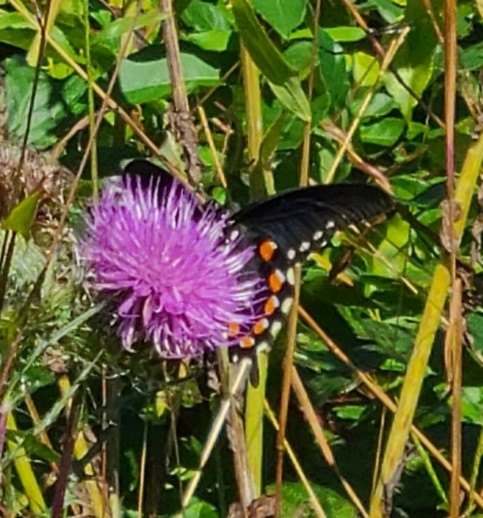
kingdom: Animalia
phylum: Arthropoda
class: Insecta
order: Lepidoptera
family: Papilionidae
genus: Battus
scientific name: Battus philenor
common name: Pipevine swallowtail
